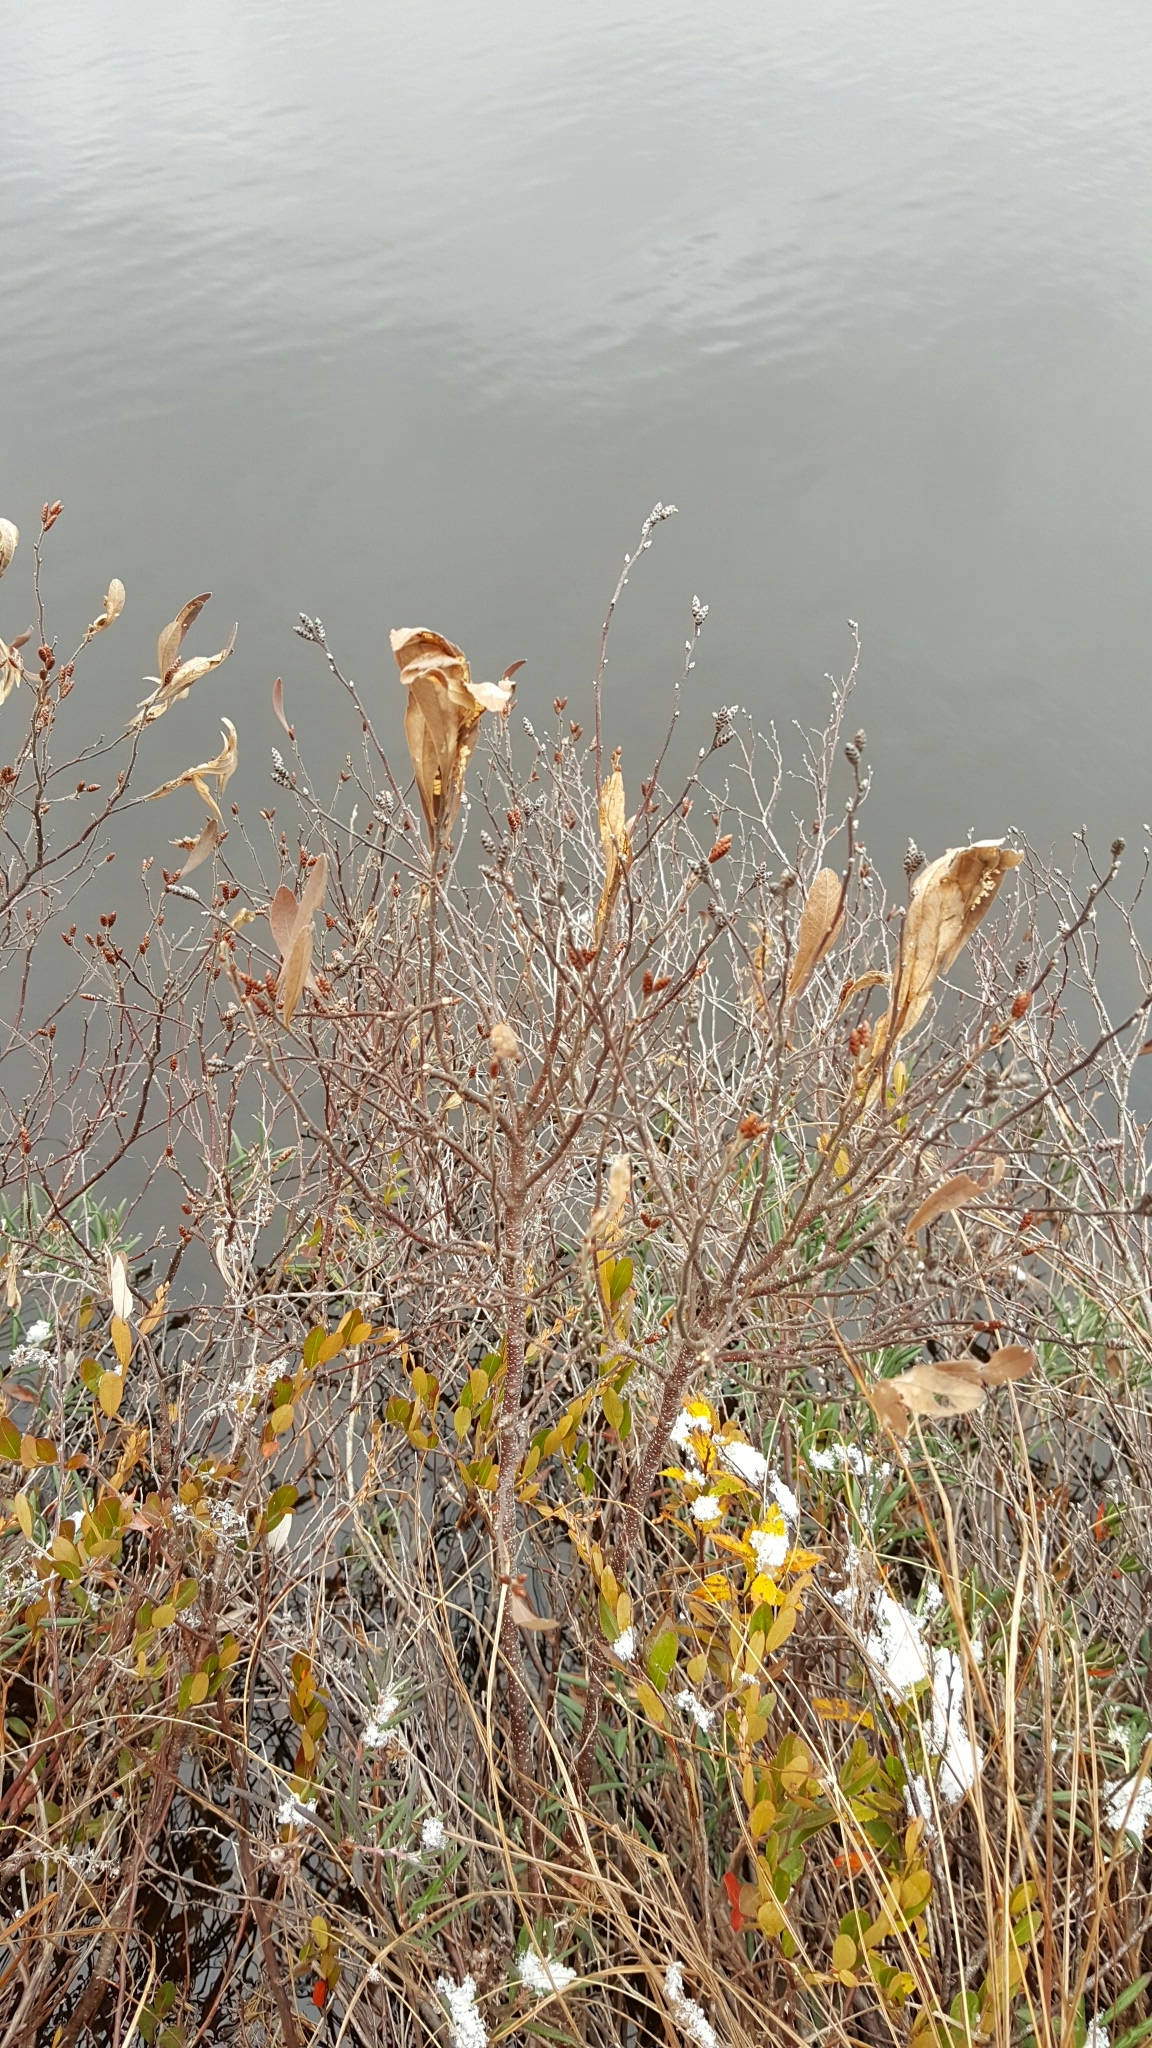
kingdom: Plantae
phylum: Tracheophyta
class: Magnoliopsida
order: Fagales
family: Myricaceae
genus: Myrica
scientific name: Myrica gale
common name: Sweet gale
